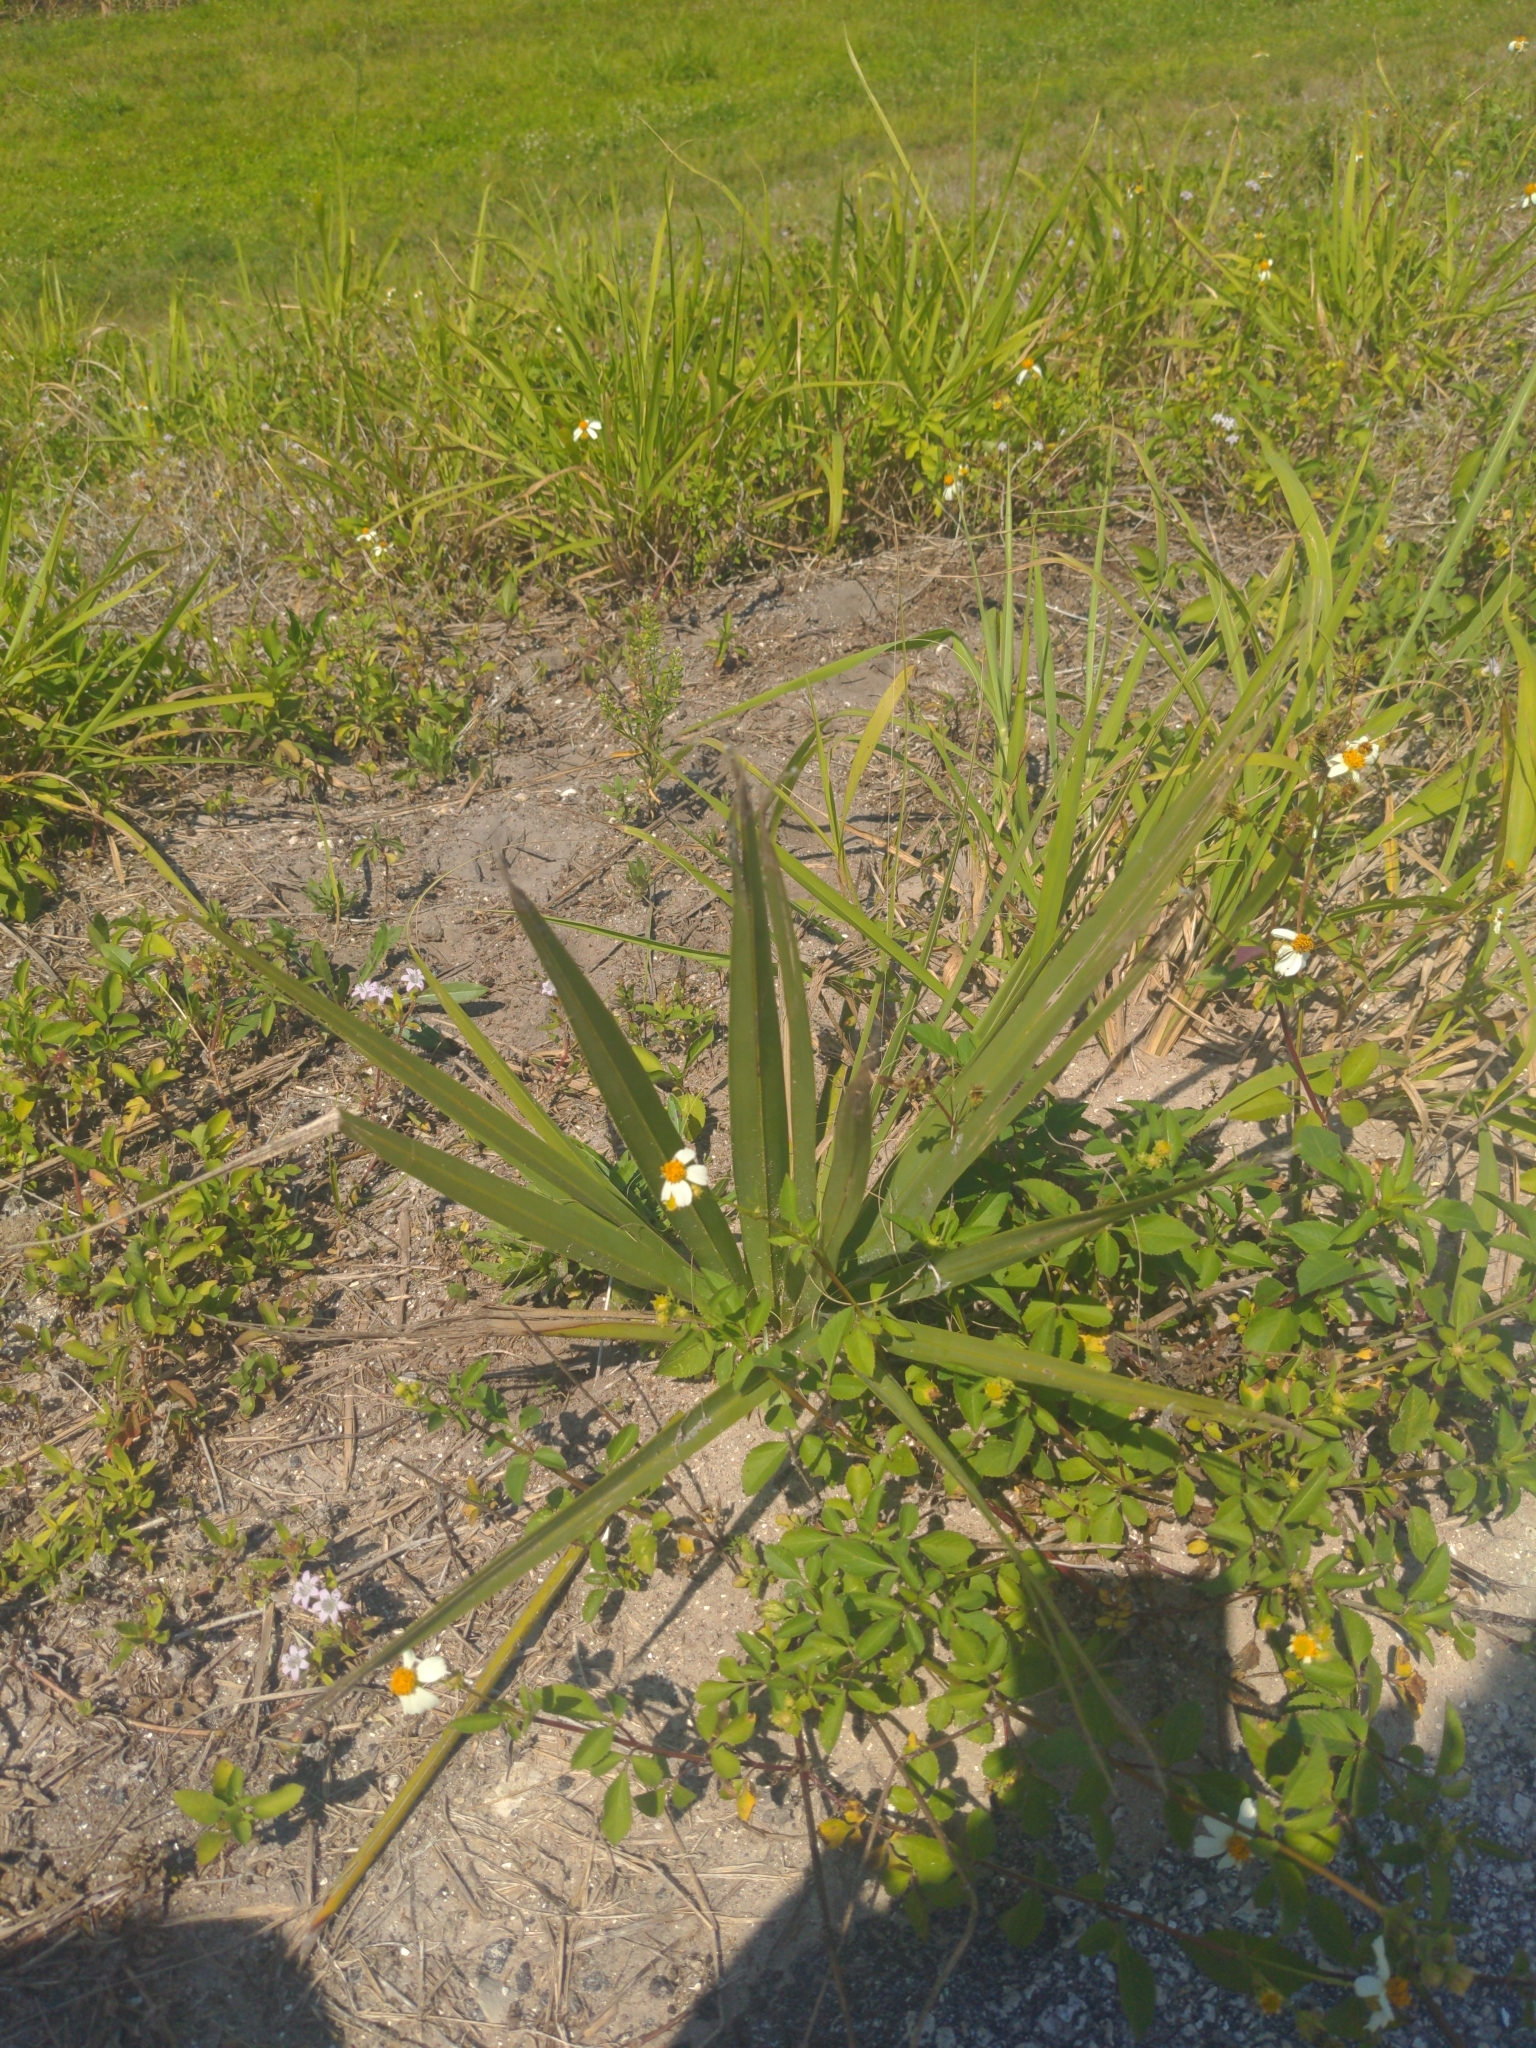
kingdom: Plantae
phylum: Tracheophyta
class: Magnoliopsida
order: Asterales
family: Asteraceae
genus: Bidens
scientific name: Bidens alba
